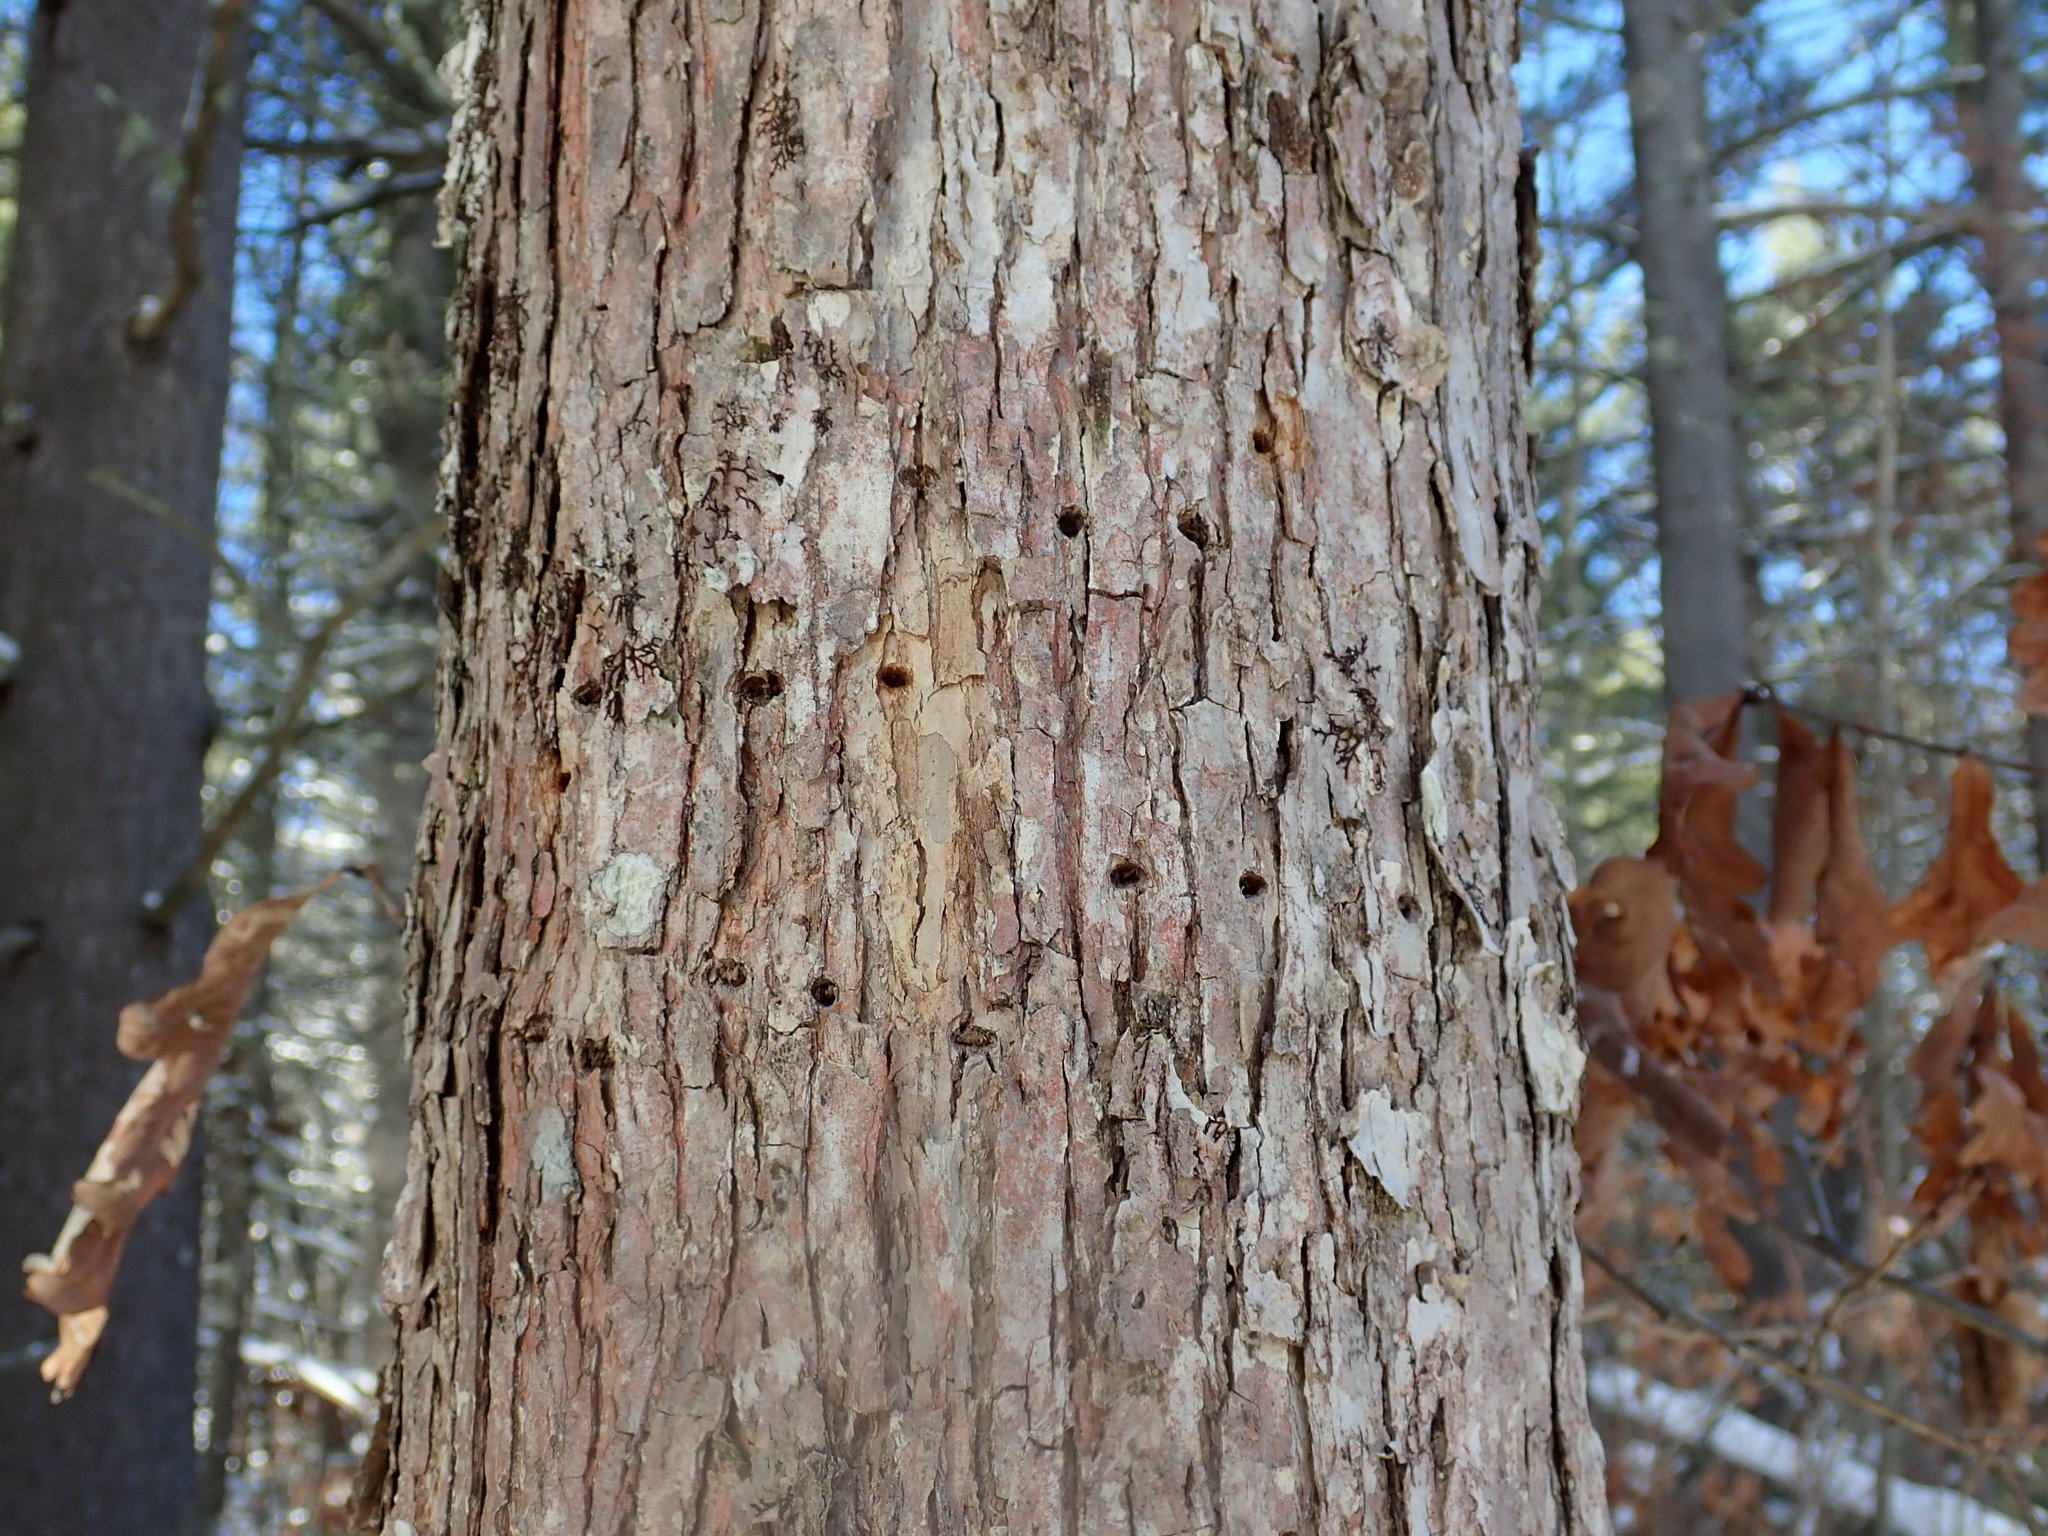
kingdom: Animalia
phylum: Chordata
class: Aves
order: Piciformes
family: Picidae
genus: Sphyrapicus
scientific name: Sphyrapicus varius
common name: Yellow-bellied sapsucker
